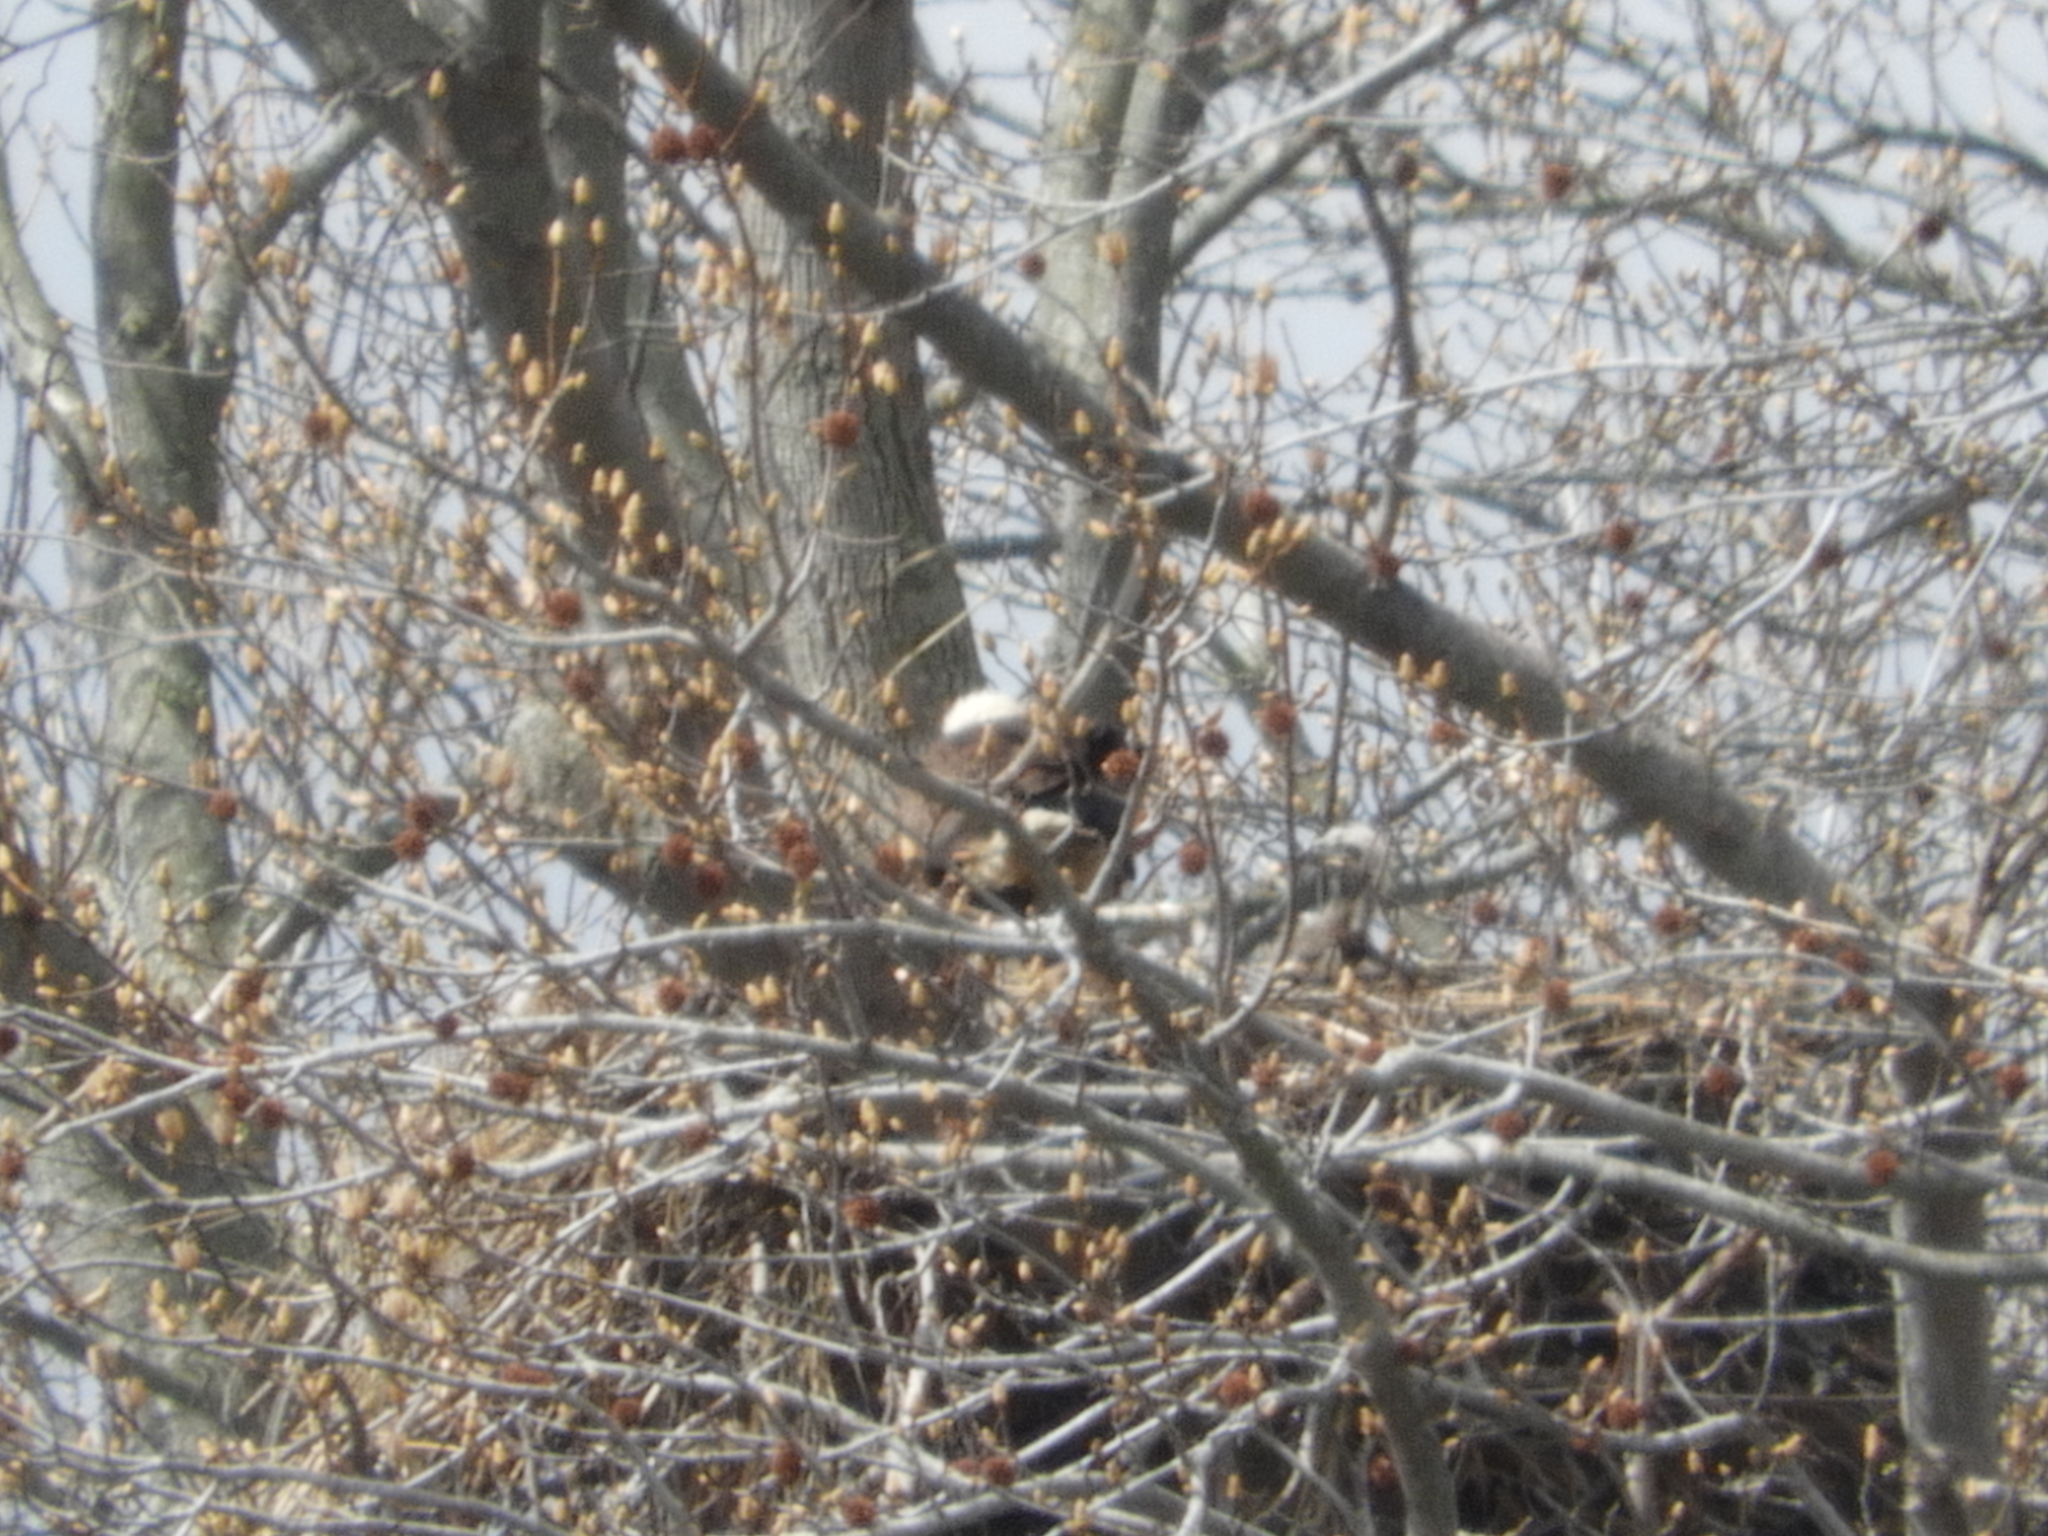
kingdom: Animalia
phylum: Chordata
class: Aves
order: Accipitriformes
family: Accipitridae
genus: Haliaeetus
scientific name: Haliaeetus leucocephalus
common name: Bald eagle
